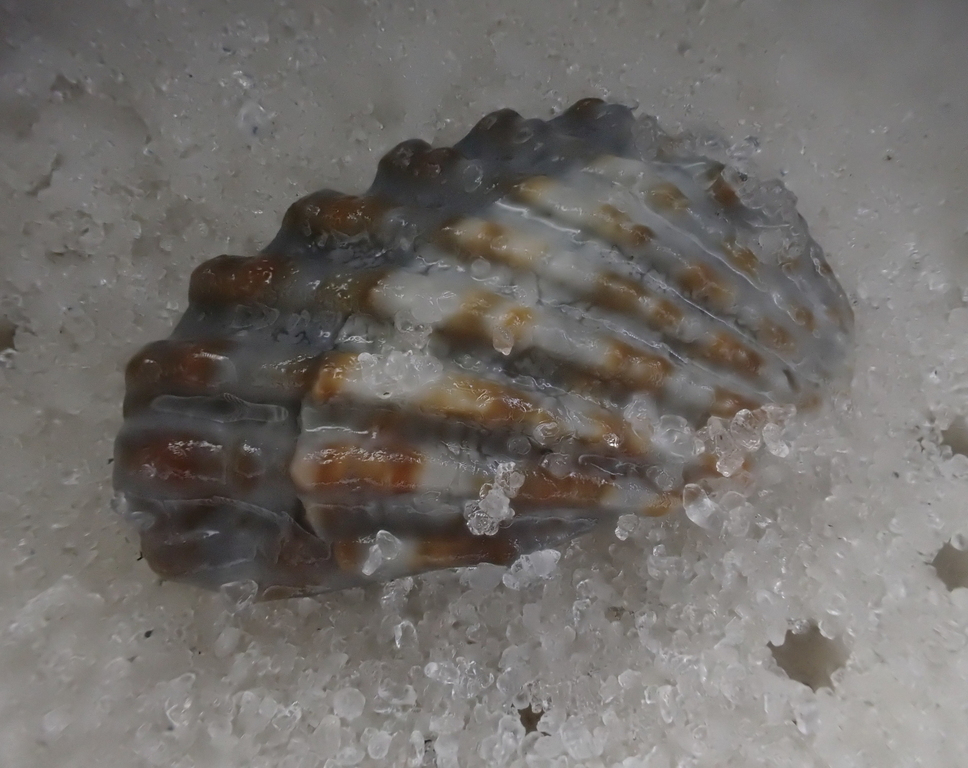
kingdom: Animalia
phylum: Mollusca
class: Bivalvia
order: Carditida
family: Carditidae
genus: Cardites
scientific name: Cardites floridanus
